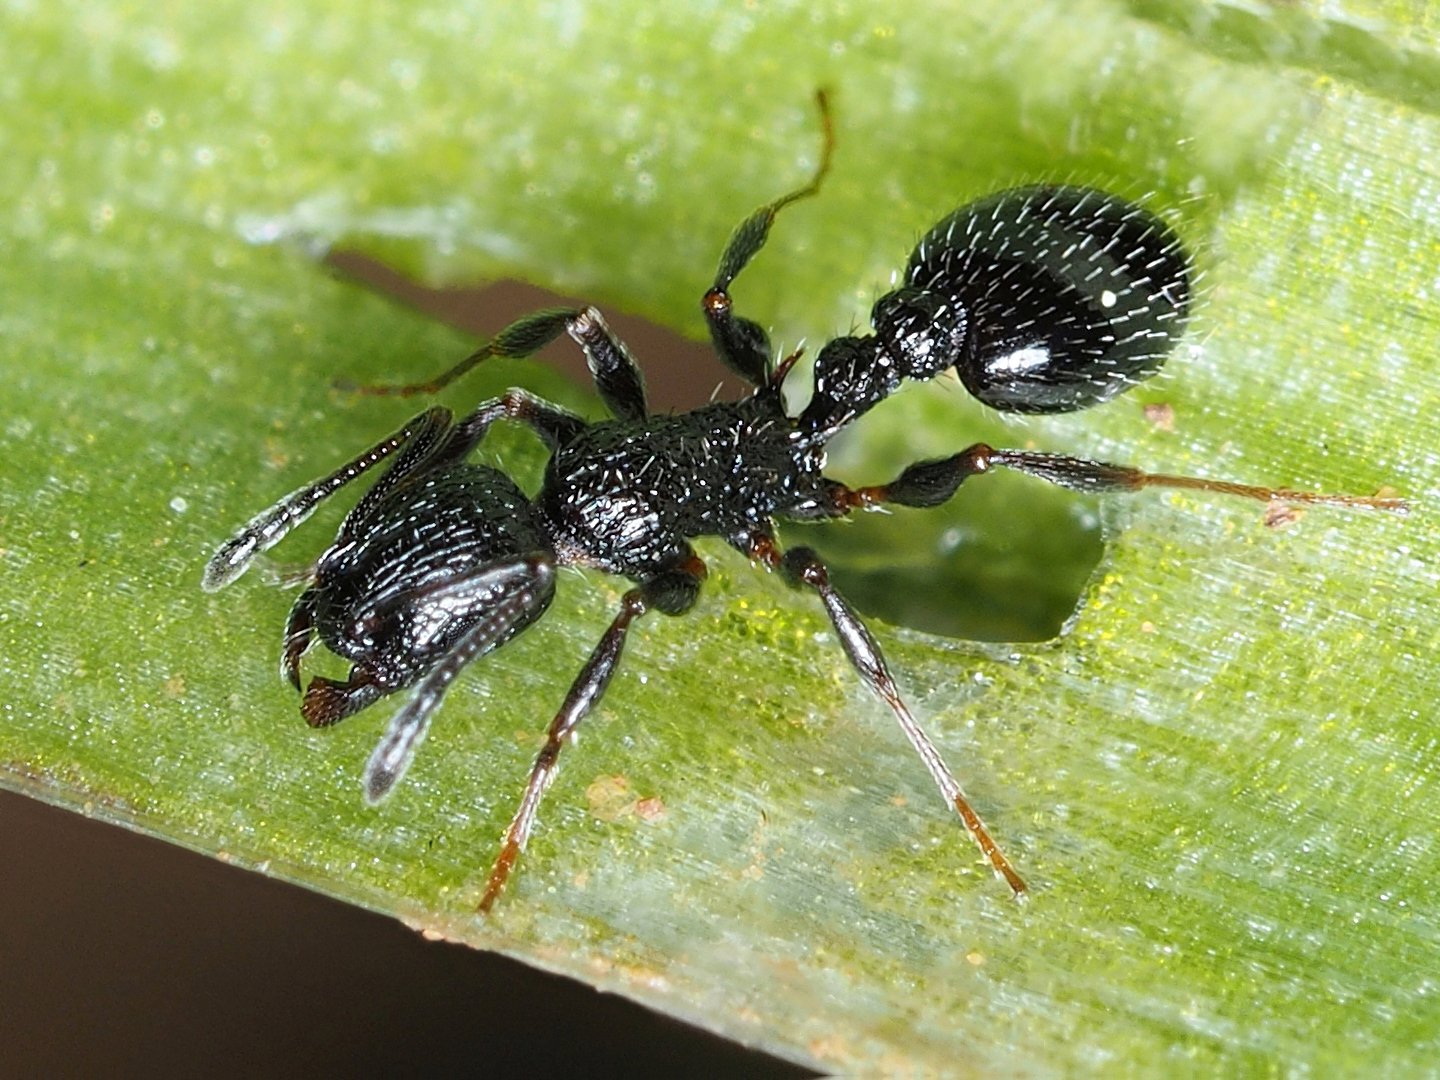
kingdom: Animalia
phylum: Arthropoda
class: Insecta
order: Hymenoptera
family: Formicidae
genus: Temnothorax
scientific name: Temnothorax
